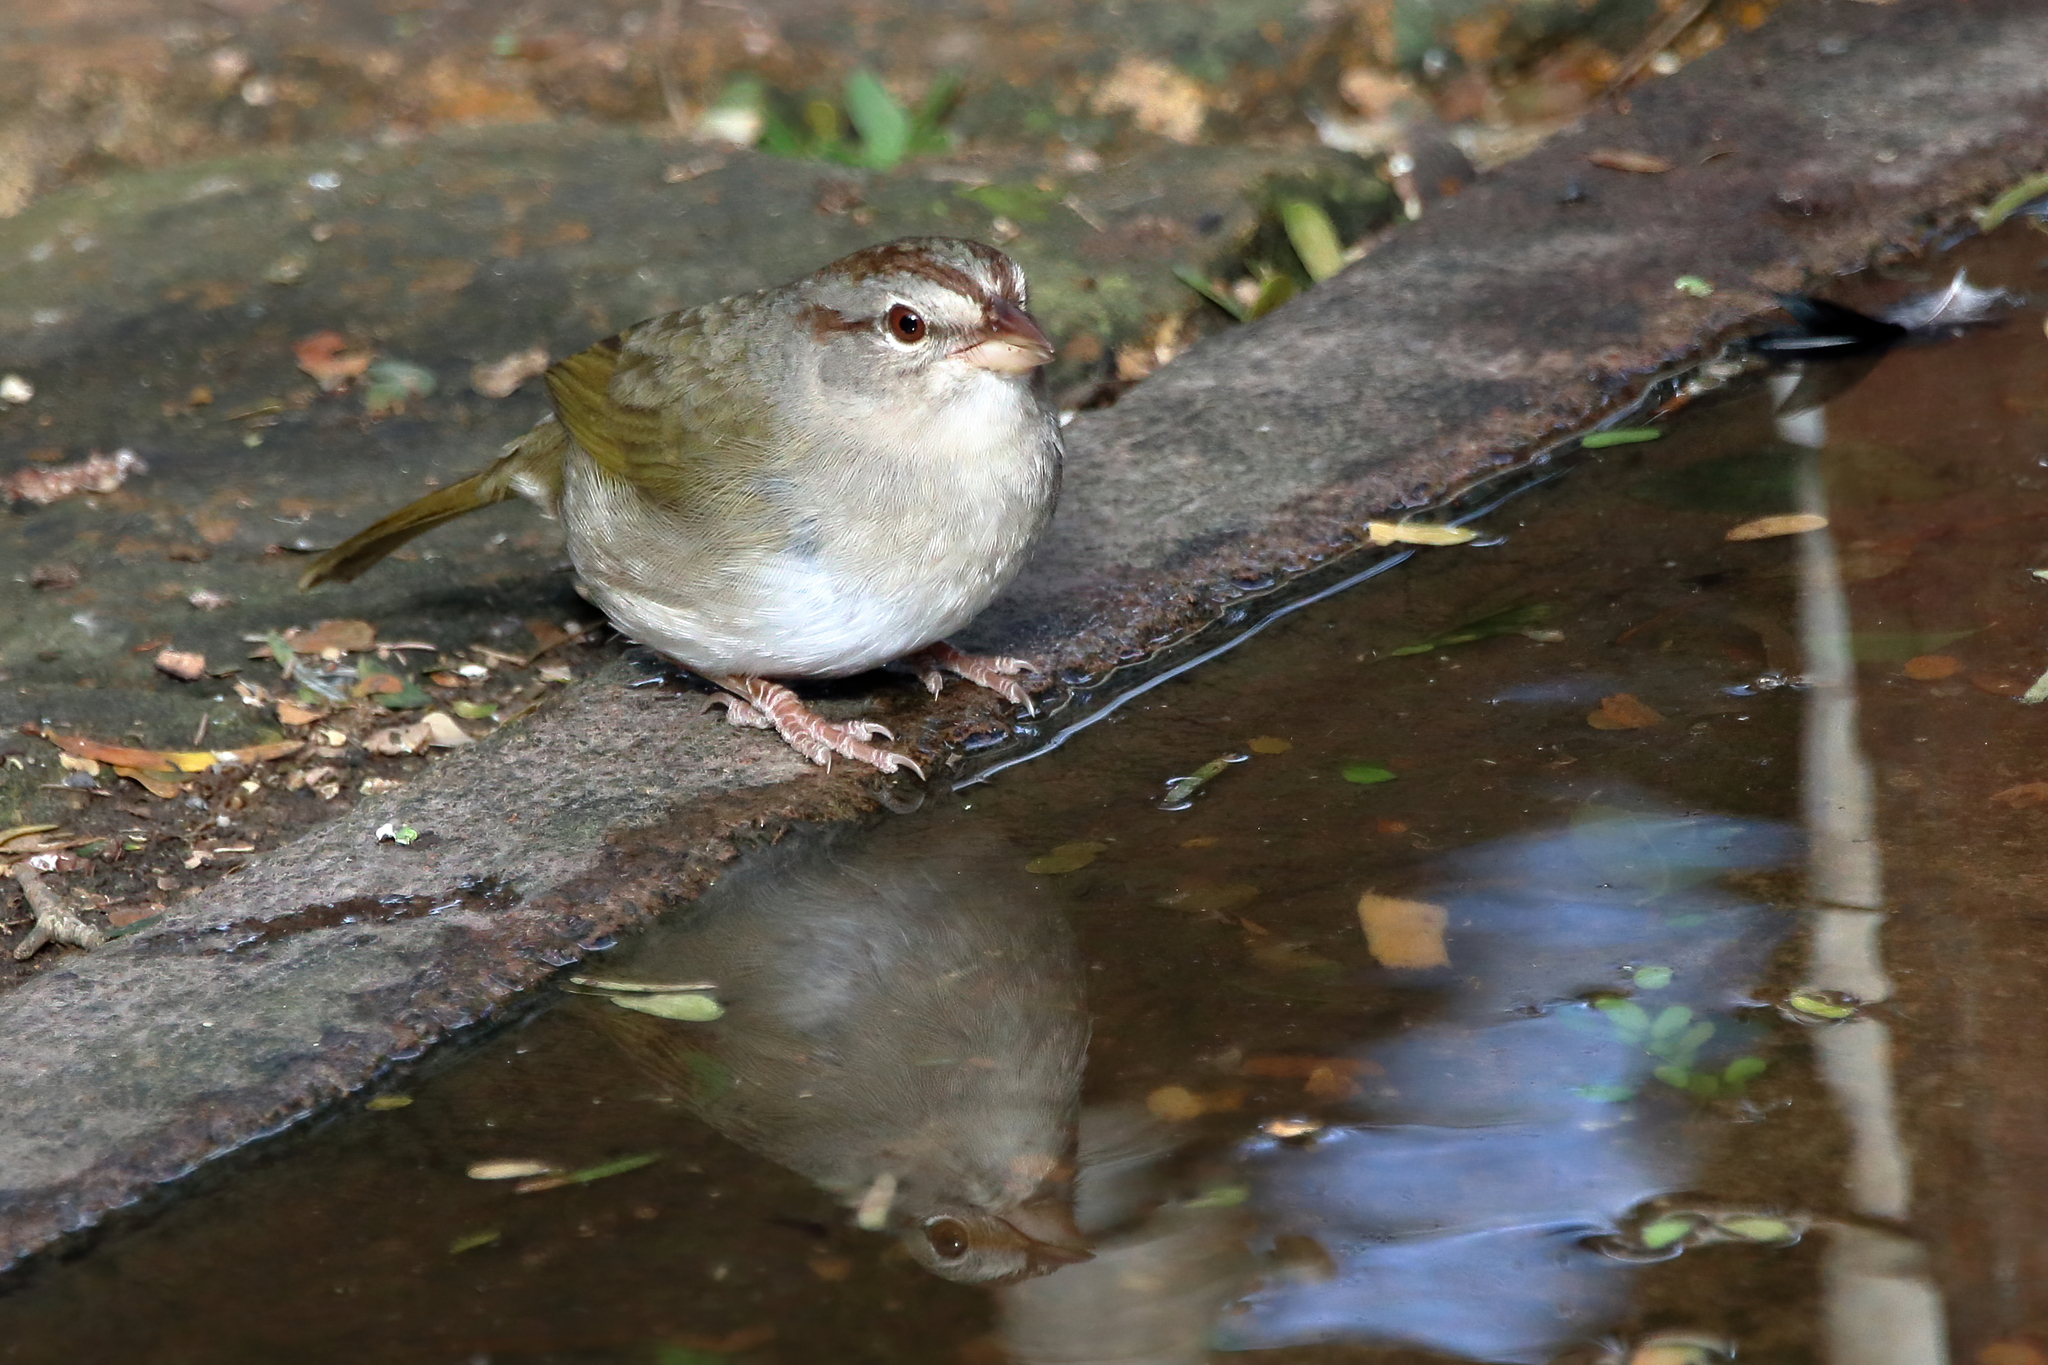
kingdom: Animalia
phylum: Chordata
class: Aves
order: Passeriformes
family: Passerellidae
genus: Arremonops
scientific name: Arremonops rufivirgatus
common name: Olive sparrow
